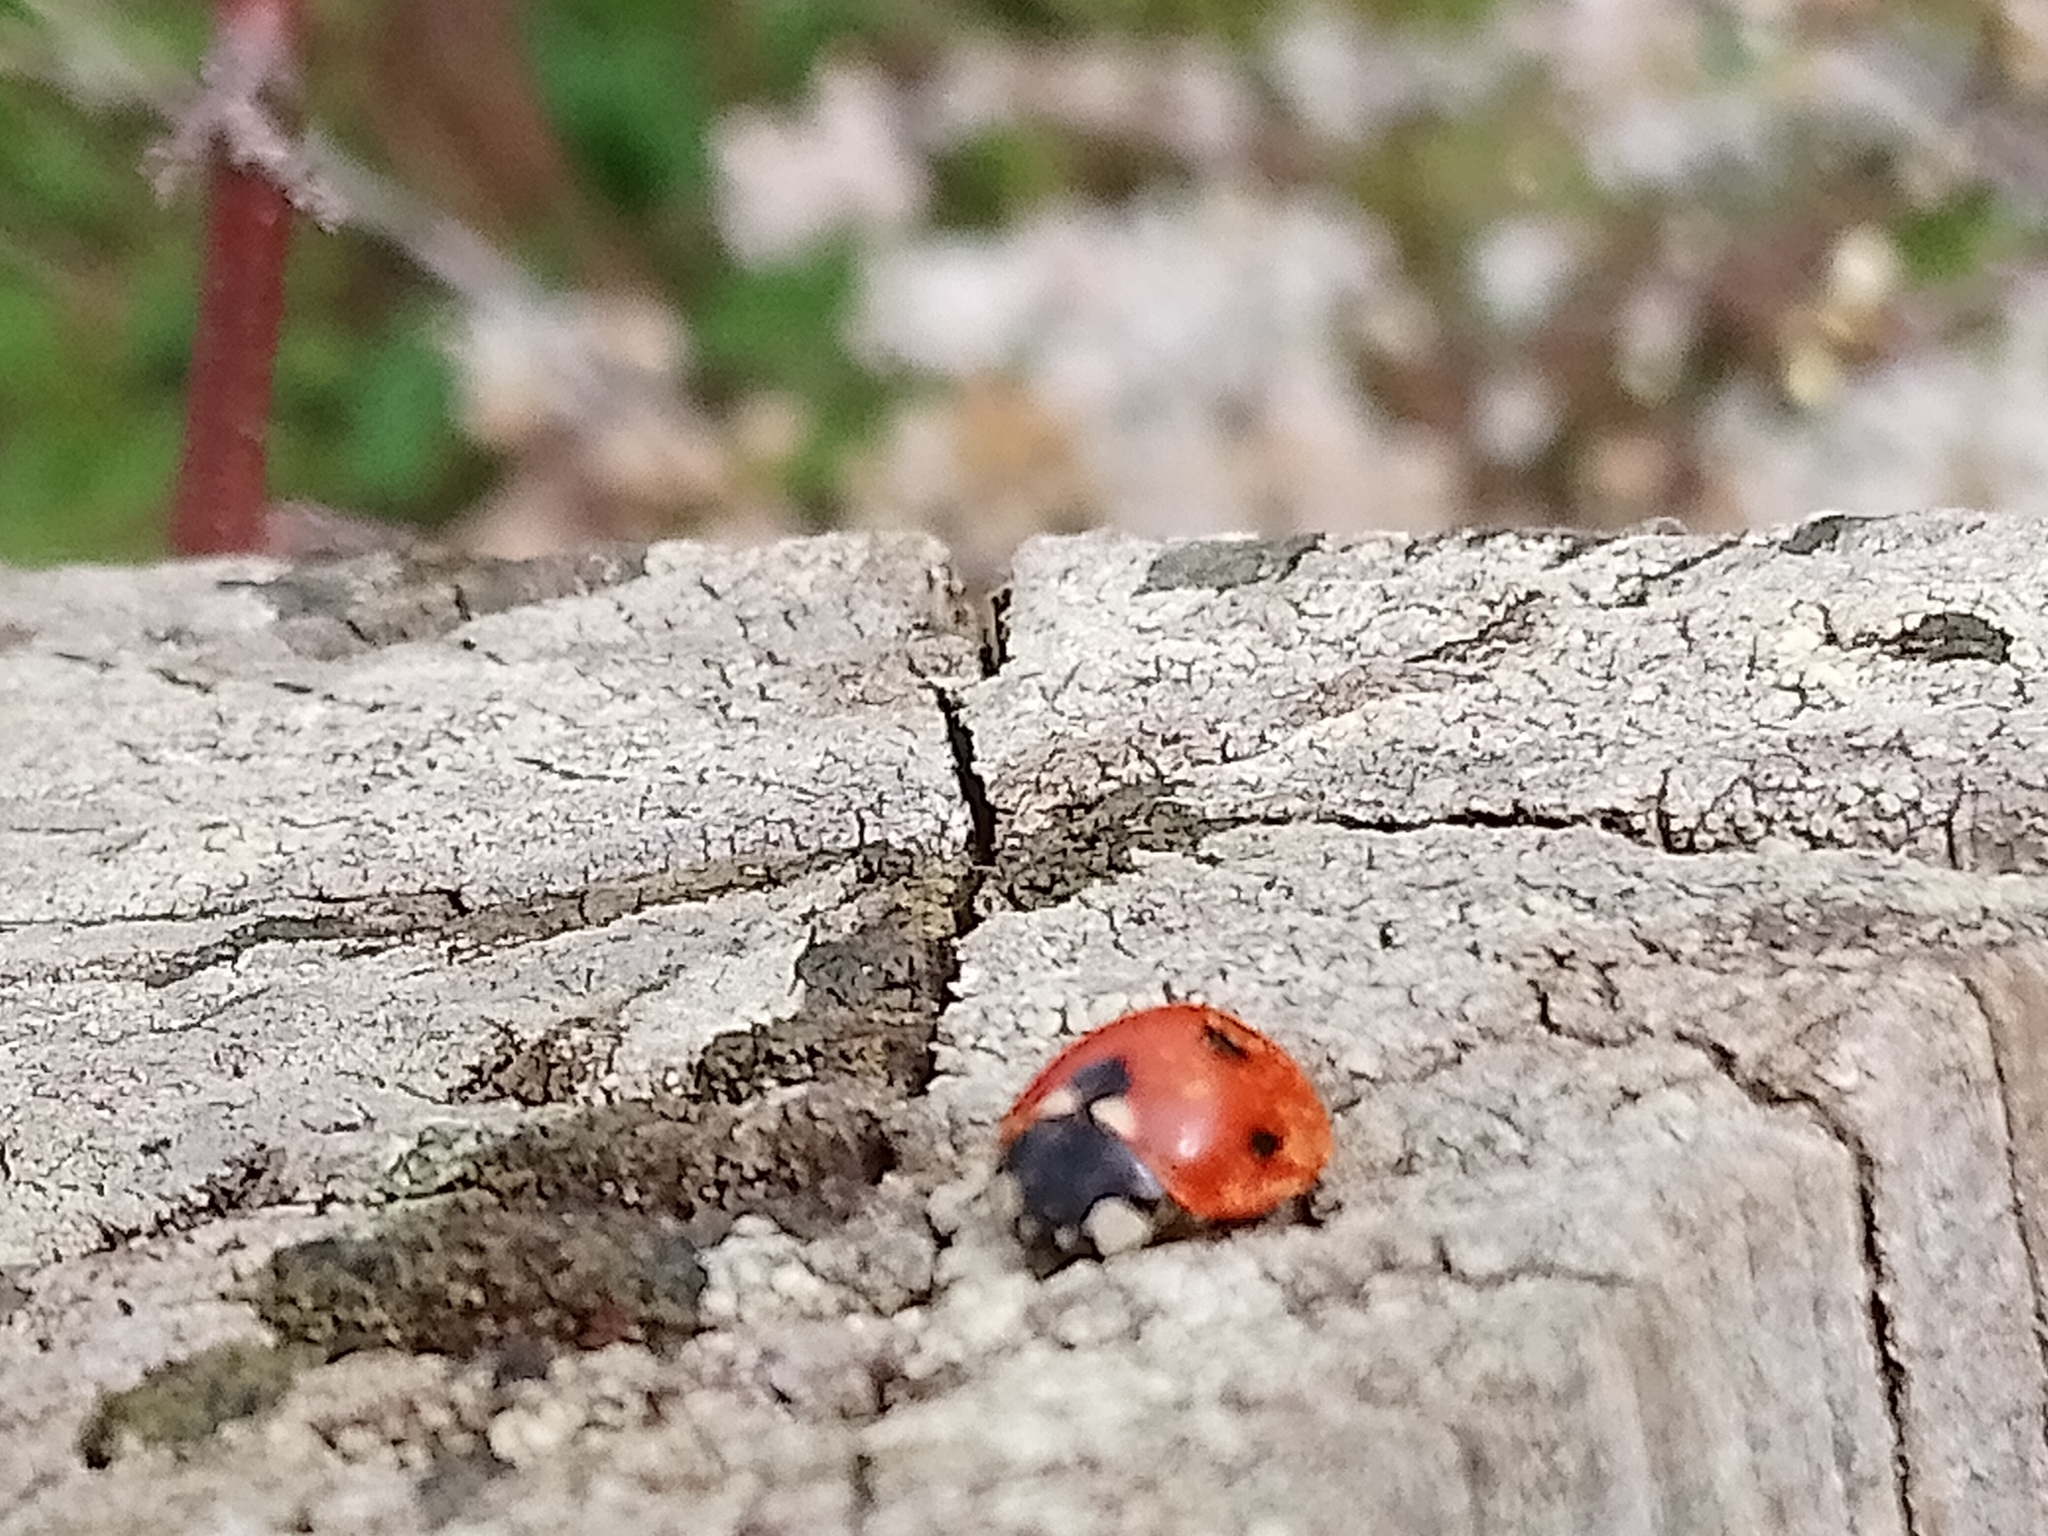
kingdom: Animalia
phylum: Arthropoda
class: Insecta
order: Coleoptera
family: Coccinellidae
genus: Coccinella
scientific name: Coccinella septempunctata
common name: Sevenspotted lady beetle
